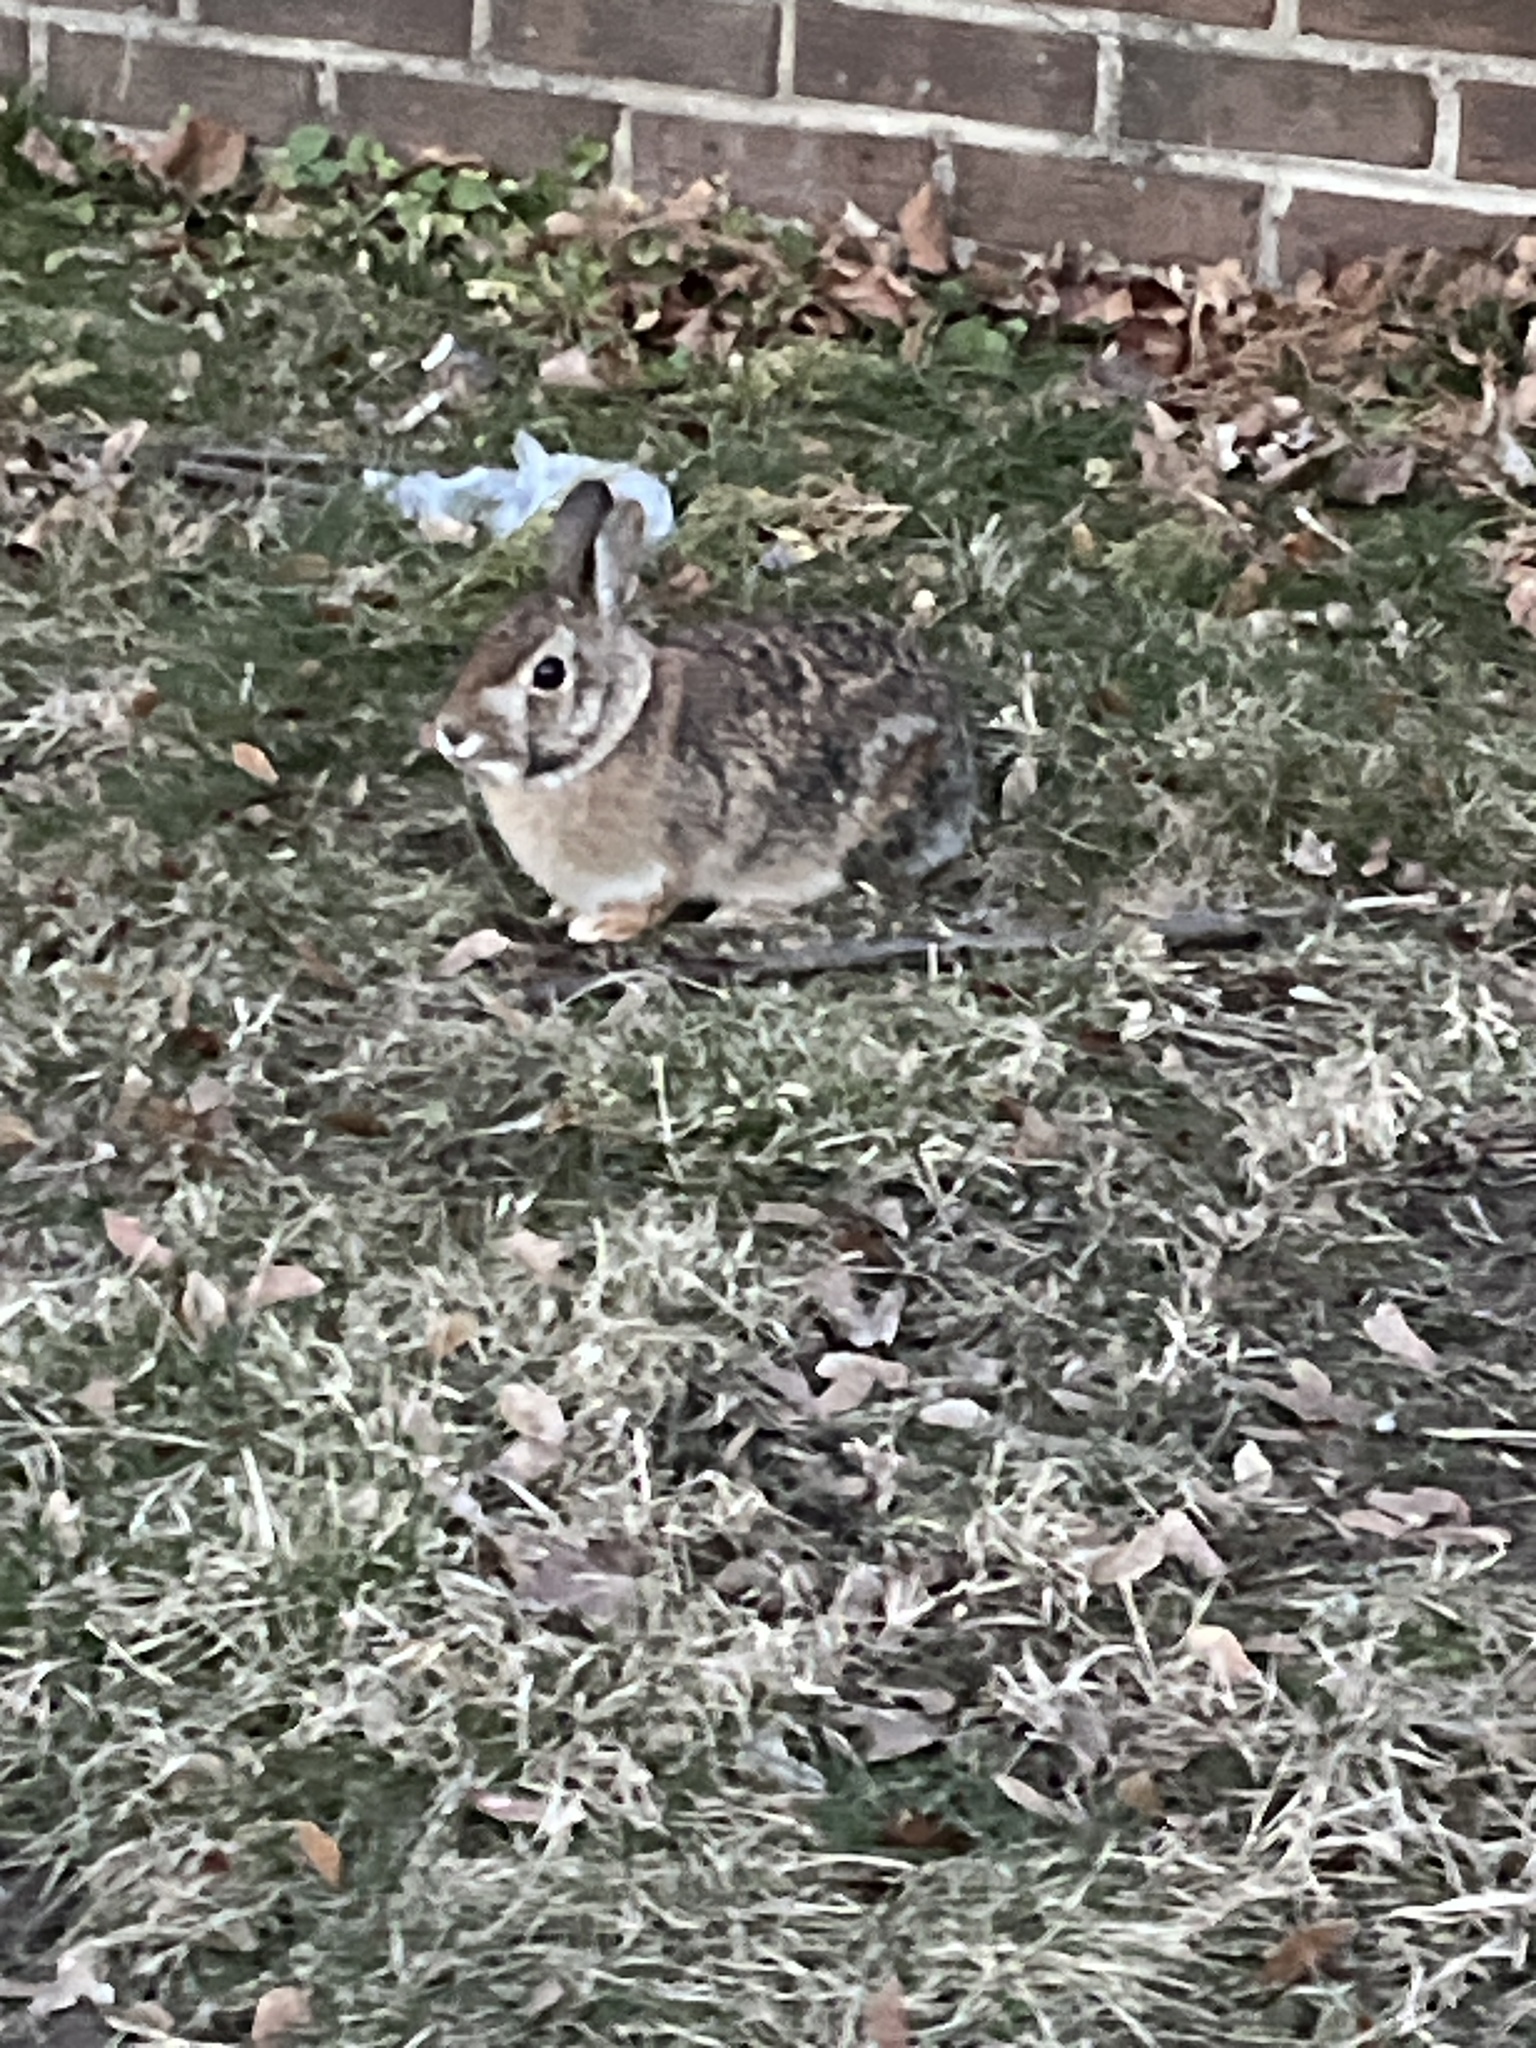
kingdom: Animalia
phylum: Chordata
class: Mammalia
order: Lagomorpha
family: Leporidae
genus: Sylvilagus
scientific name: Sylvilagus floridanus
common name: Eastern cottontail
